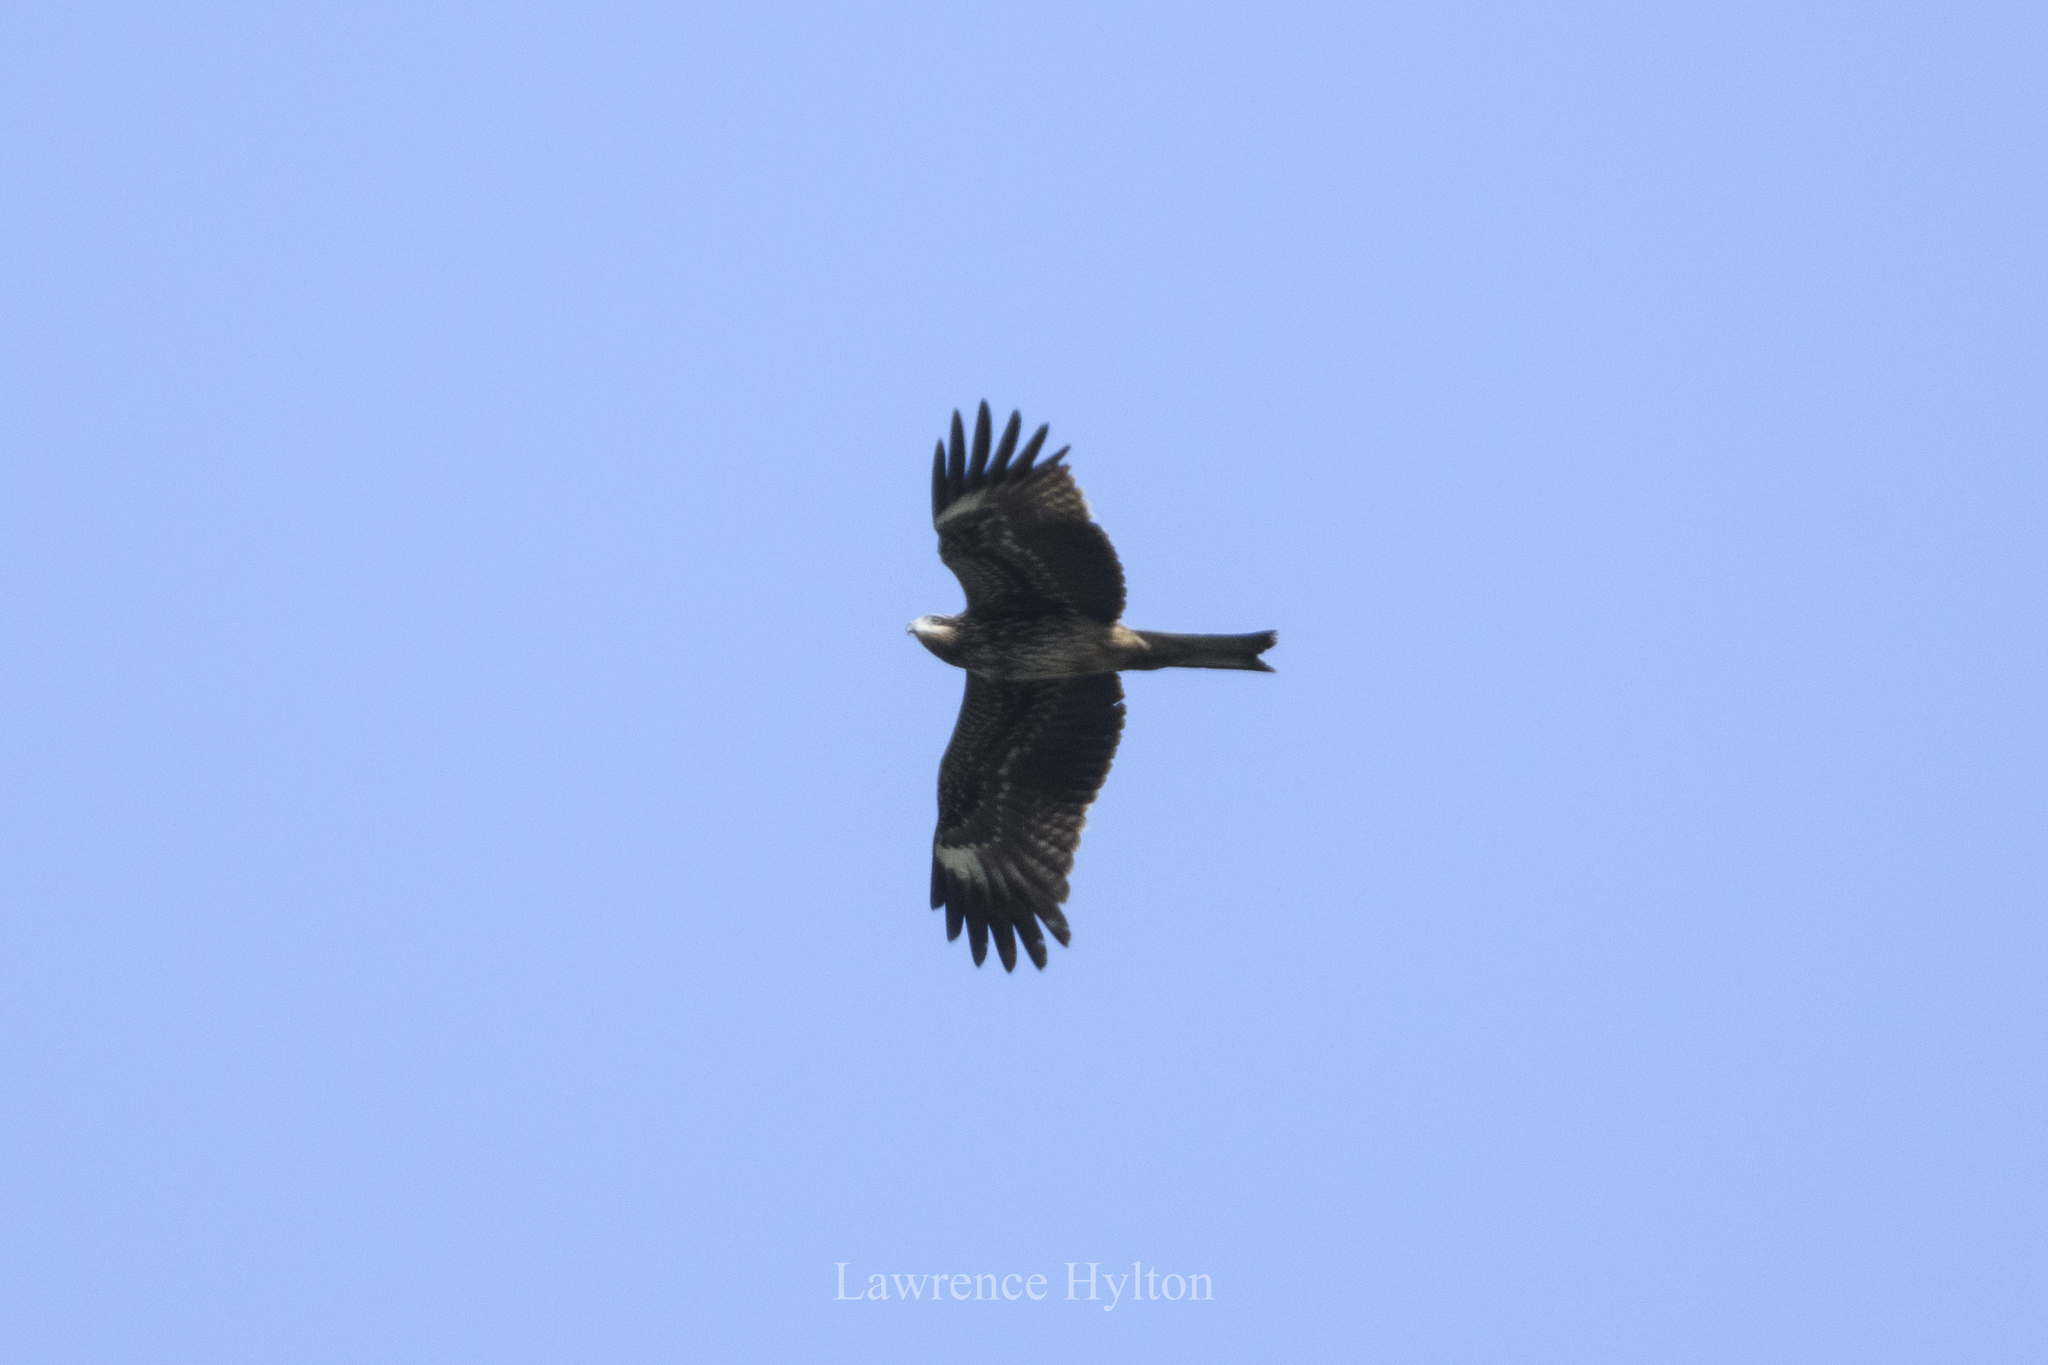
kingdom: Animalia
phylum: Chordata
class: Aves
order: Accipitriformes
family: Accipitridae
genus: Milvus
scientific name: Milvus migrans
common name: Black kite
